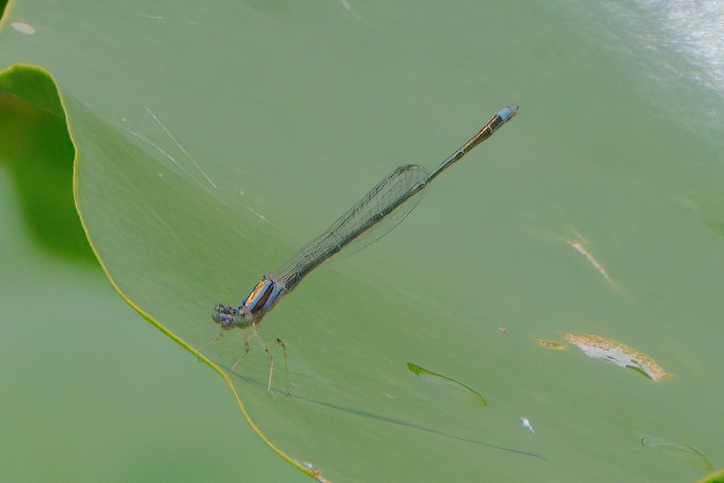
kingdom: Animalia
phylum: Arthropoda
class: Insecta
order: Odonata
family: Coenagrionidae
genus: Enallagma
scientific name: Enallagma pollutum
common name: Florida bluet
